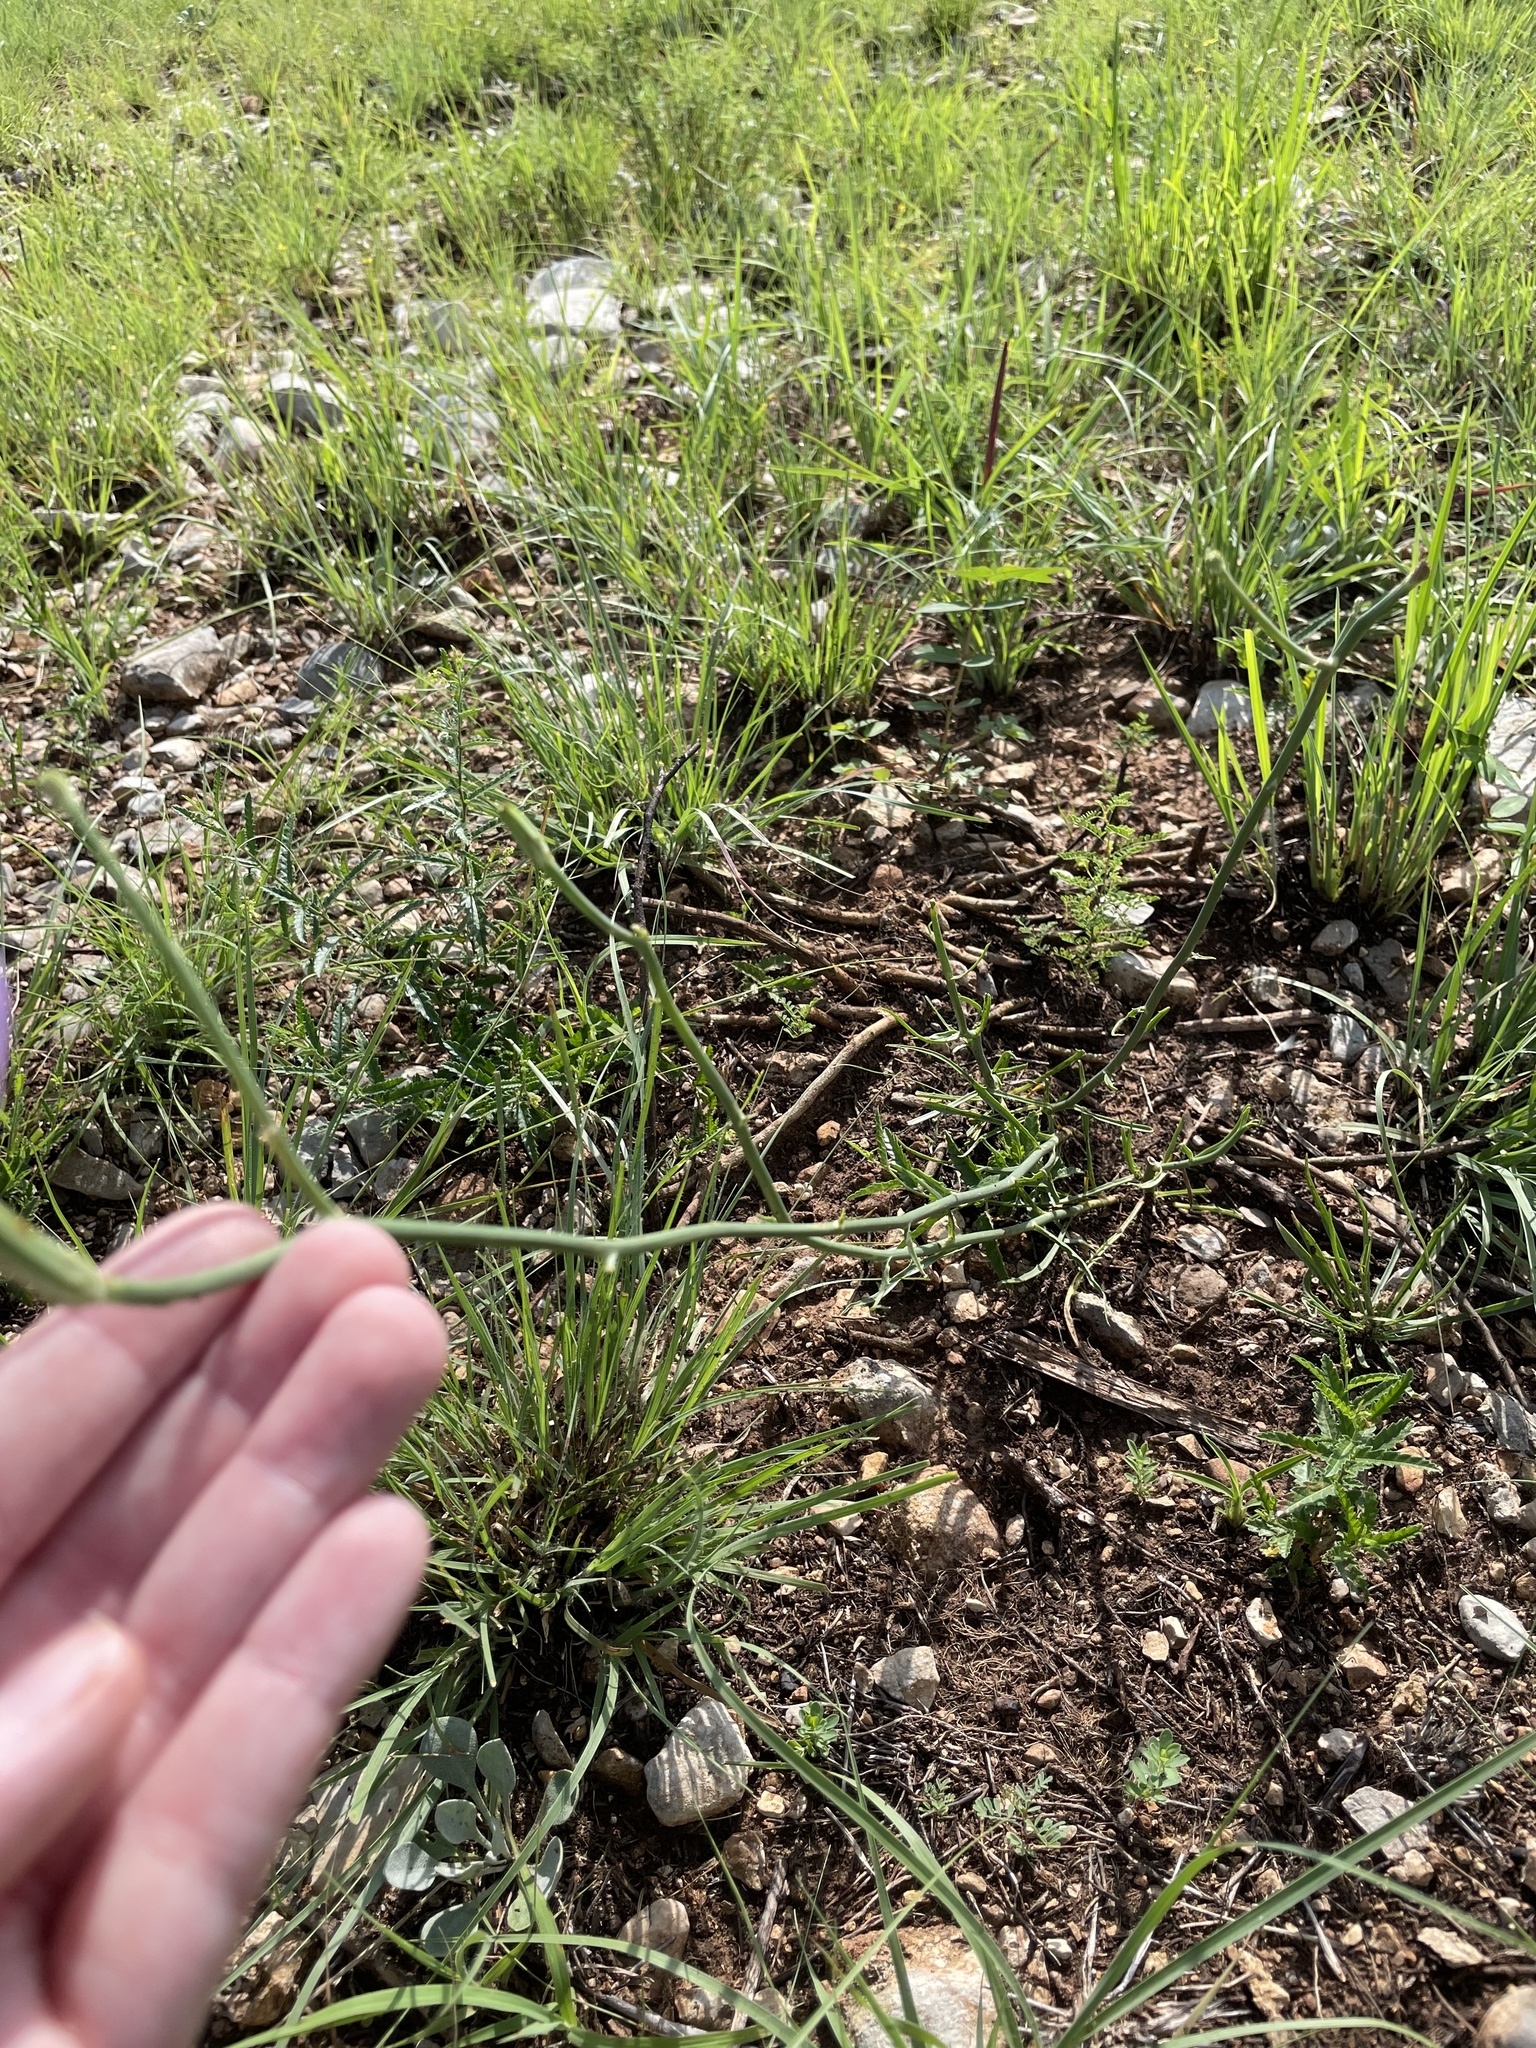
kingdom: Plantae
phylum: Tracheophyta
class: Magnoliopsida
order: Asterales
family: Asteraceae
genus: Lygodesmia
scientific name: Lygodesmia texana
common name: Texas skeleton-plant
